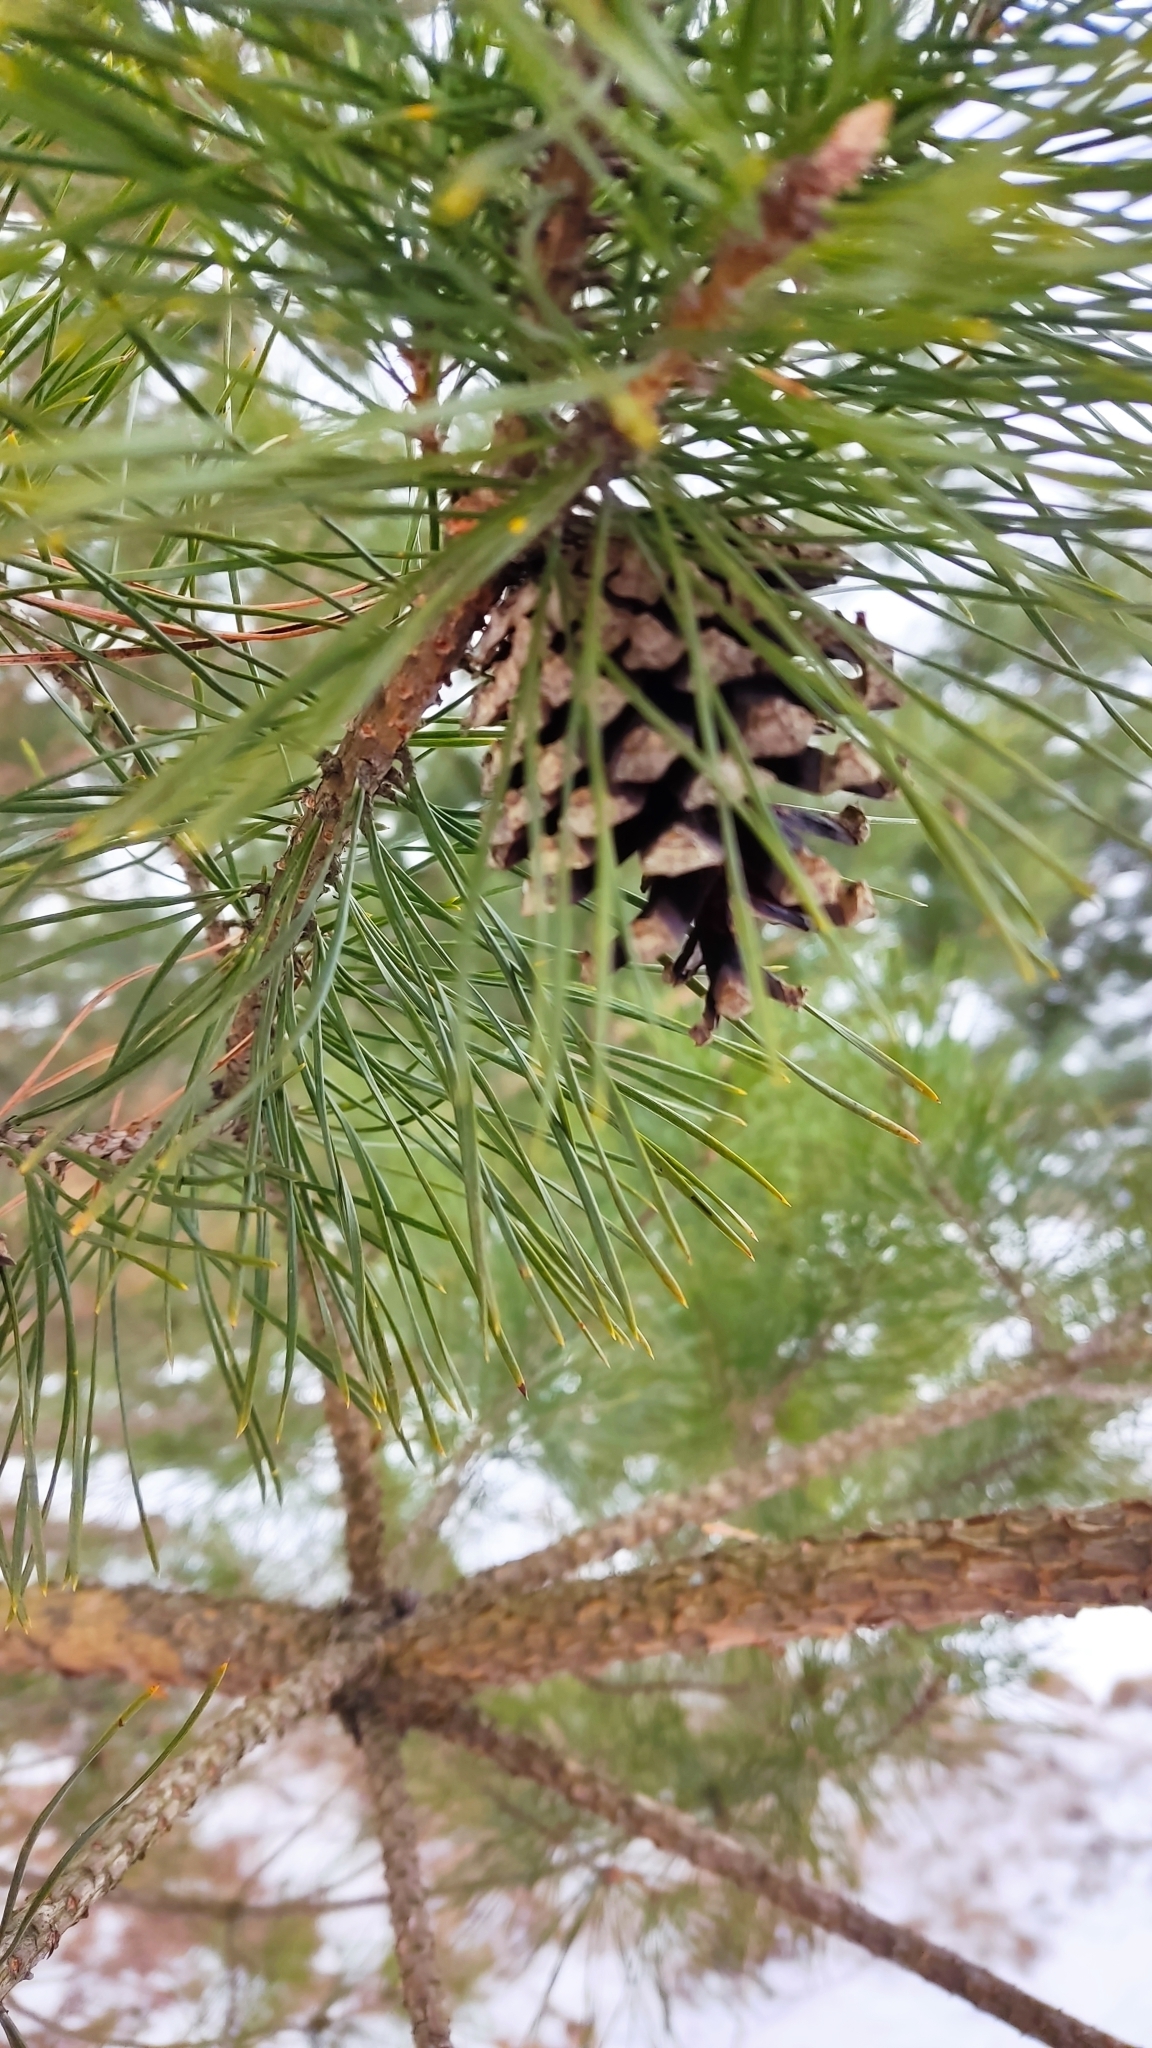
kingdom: Plantae
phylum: Tracheophyta
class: Pinopsida
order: Pinales
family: Pinaceae
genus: Pinus
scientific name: Pinus sylvestris
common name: Scots pine
